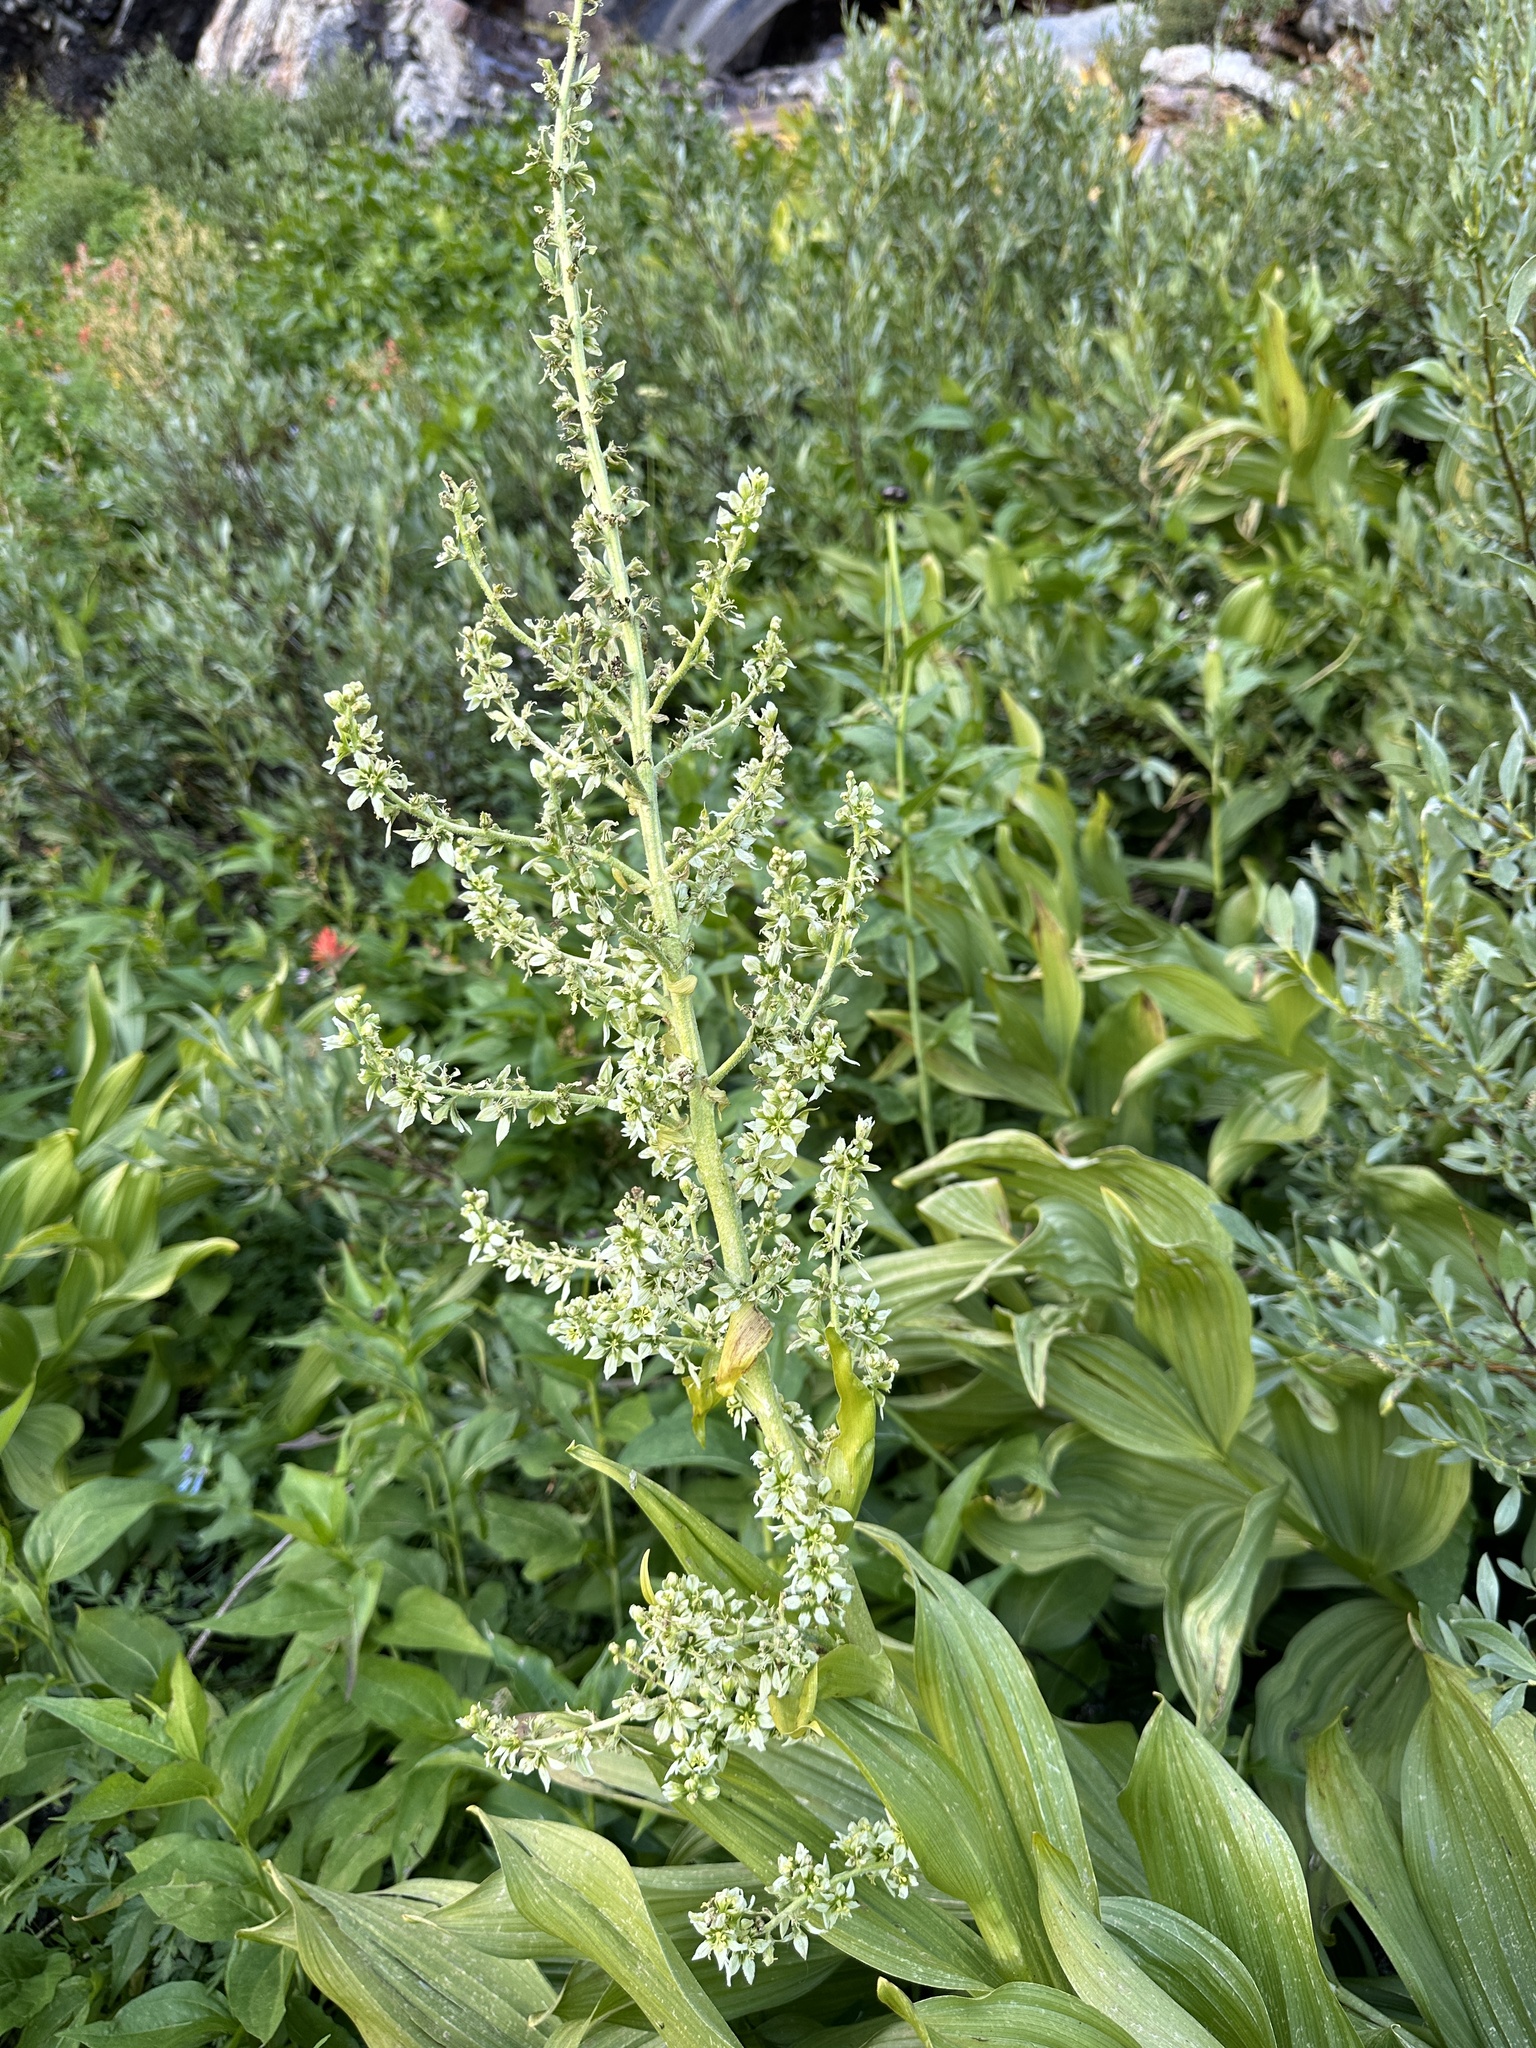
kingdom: Plantae
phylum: Tracheophyta
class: Liliopsida
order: Liliales
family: Melanthiaceae
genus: Veratrum
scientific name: Veratrum californicum
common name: California veratrum
